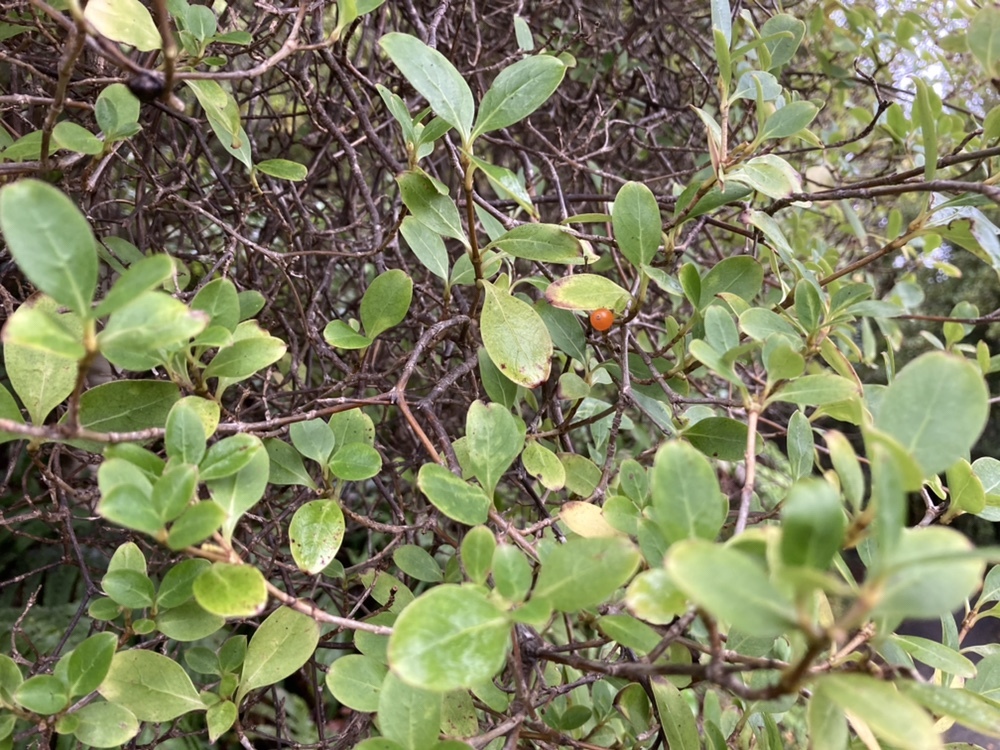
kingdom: Plantae
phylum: Tracheophyta
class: Magnoliopsida
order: Gentianales
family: Rubiaceae
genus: Coprosma
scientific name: Coprosma foetidissima
